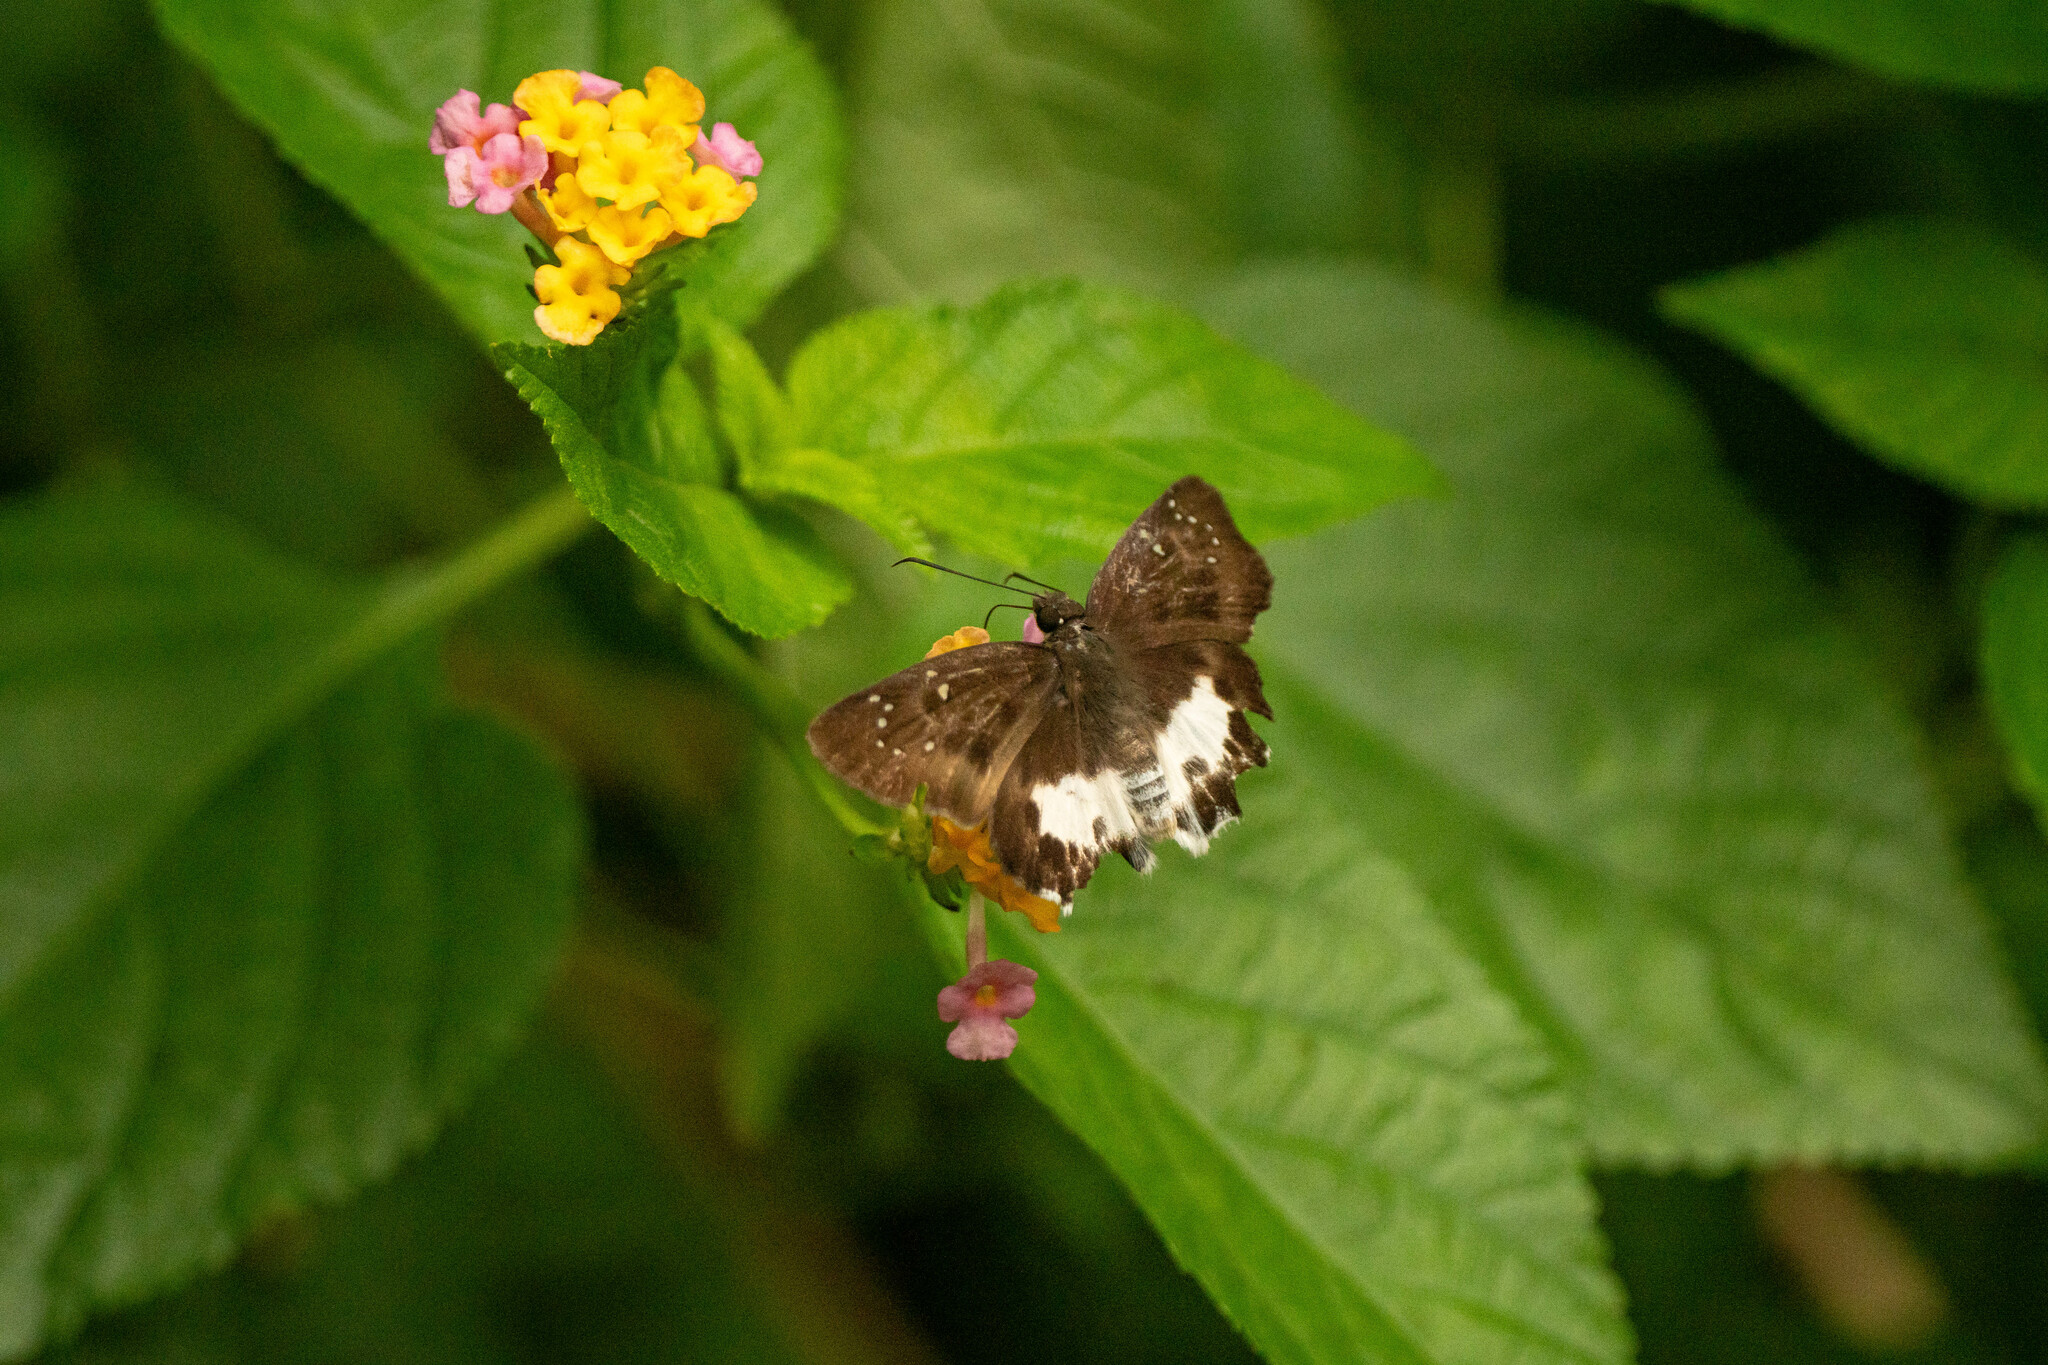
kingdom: Animalia
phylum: Arthropoda
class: Insecta
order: Lepidoptera
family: Hesperiidae
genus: Tagiades
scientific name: Tagiades menaka
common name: Dark-edged snow flat
